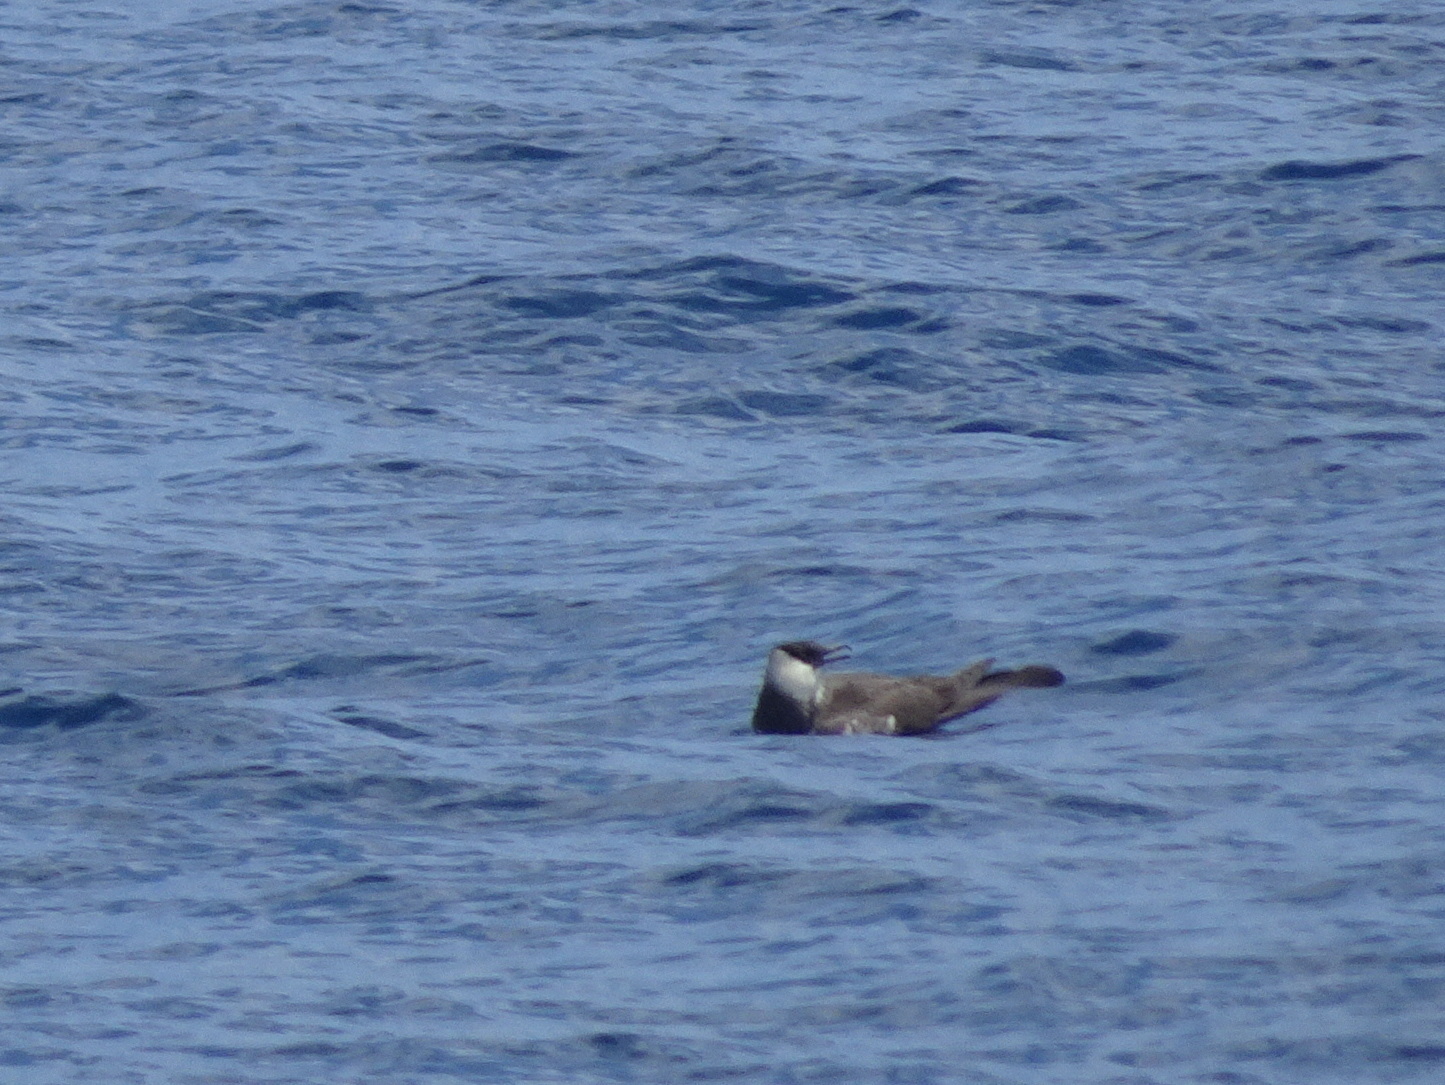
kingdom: Animalia
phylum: Chordata
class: Aves
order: Charadriiformes
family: Stercorariidae
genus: Stercorarius
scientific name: Stercorarius pomarinus
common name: Pomarine jaeger
